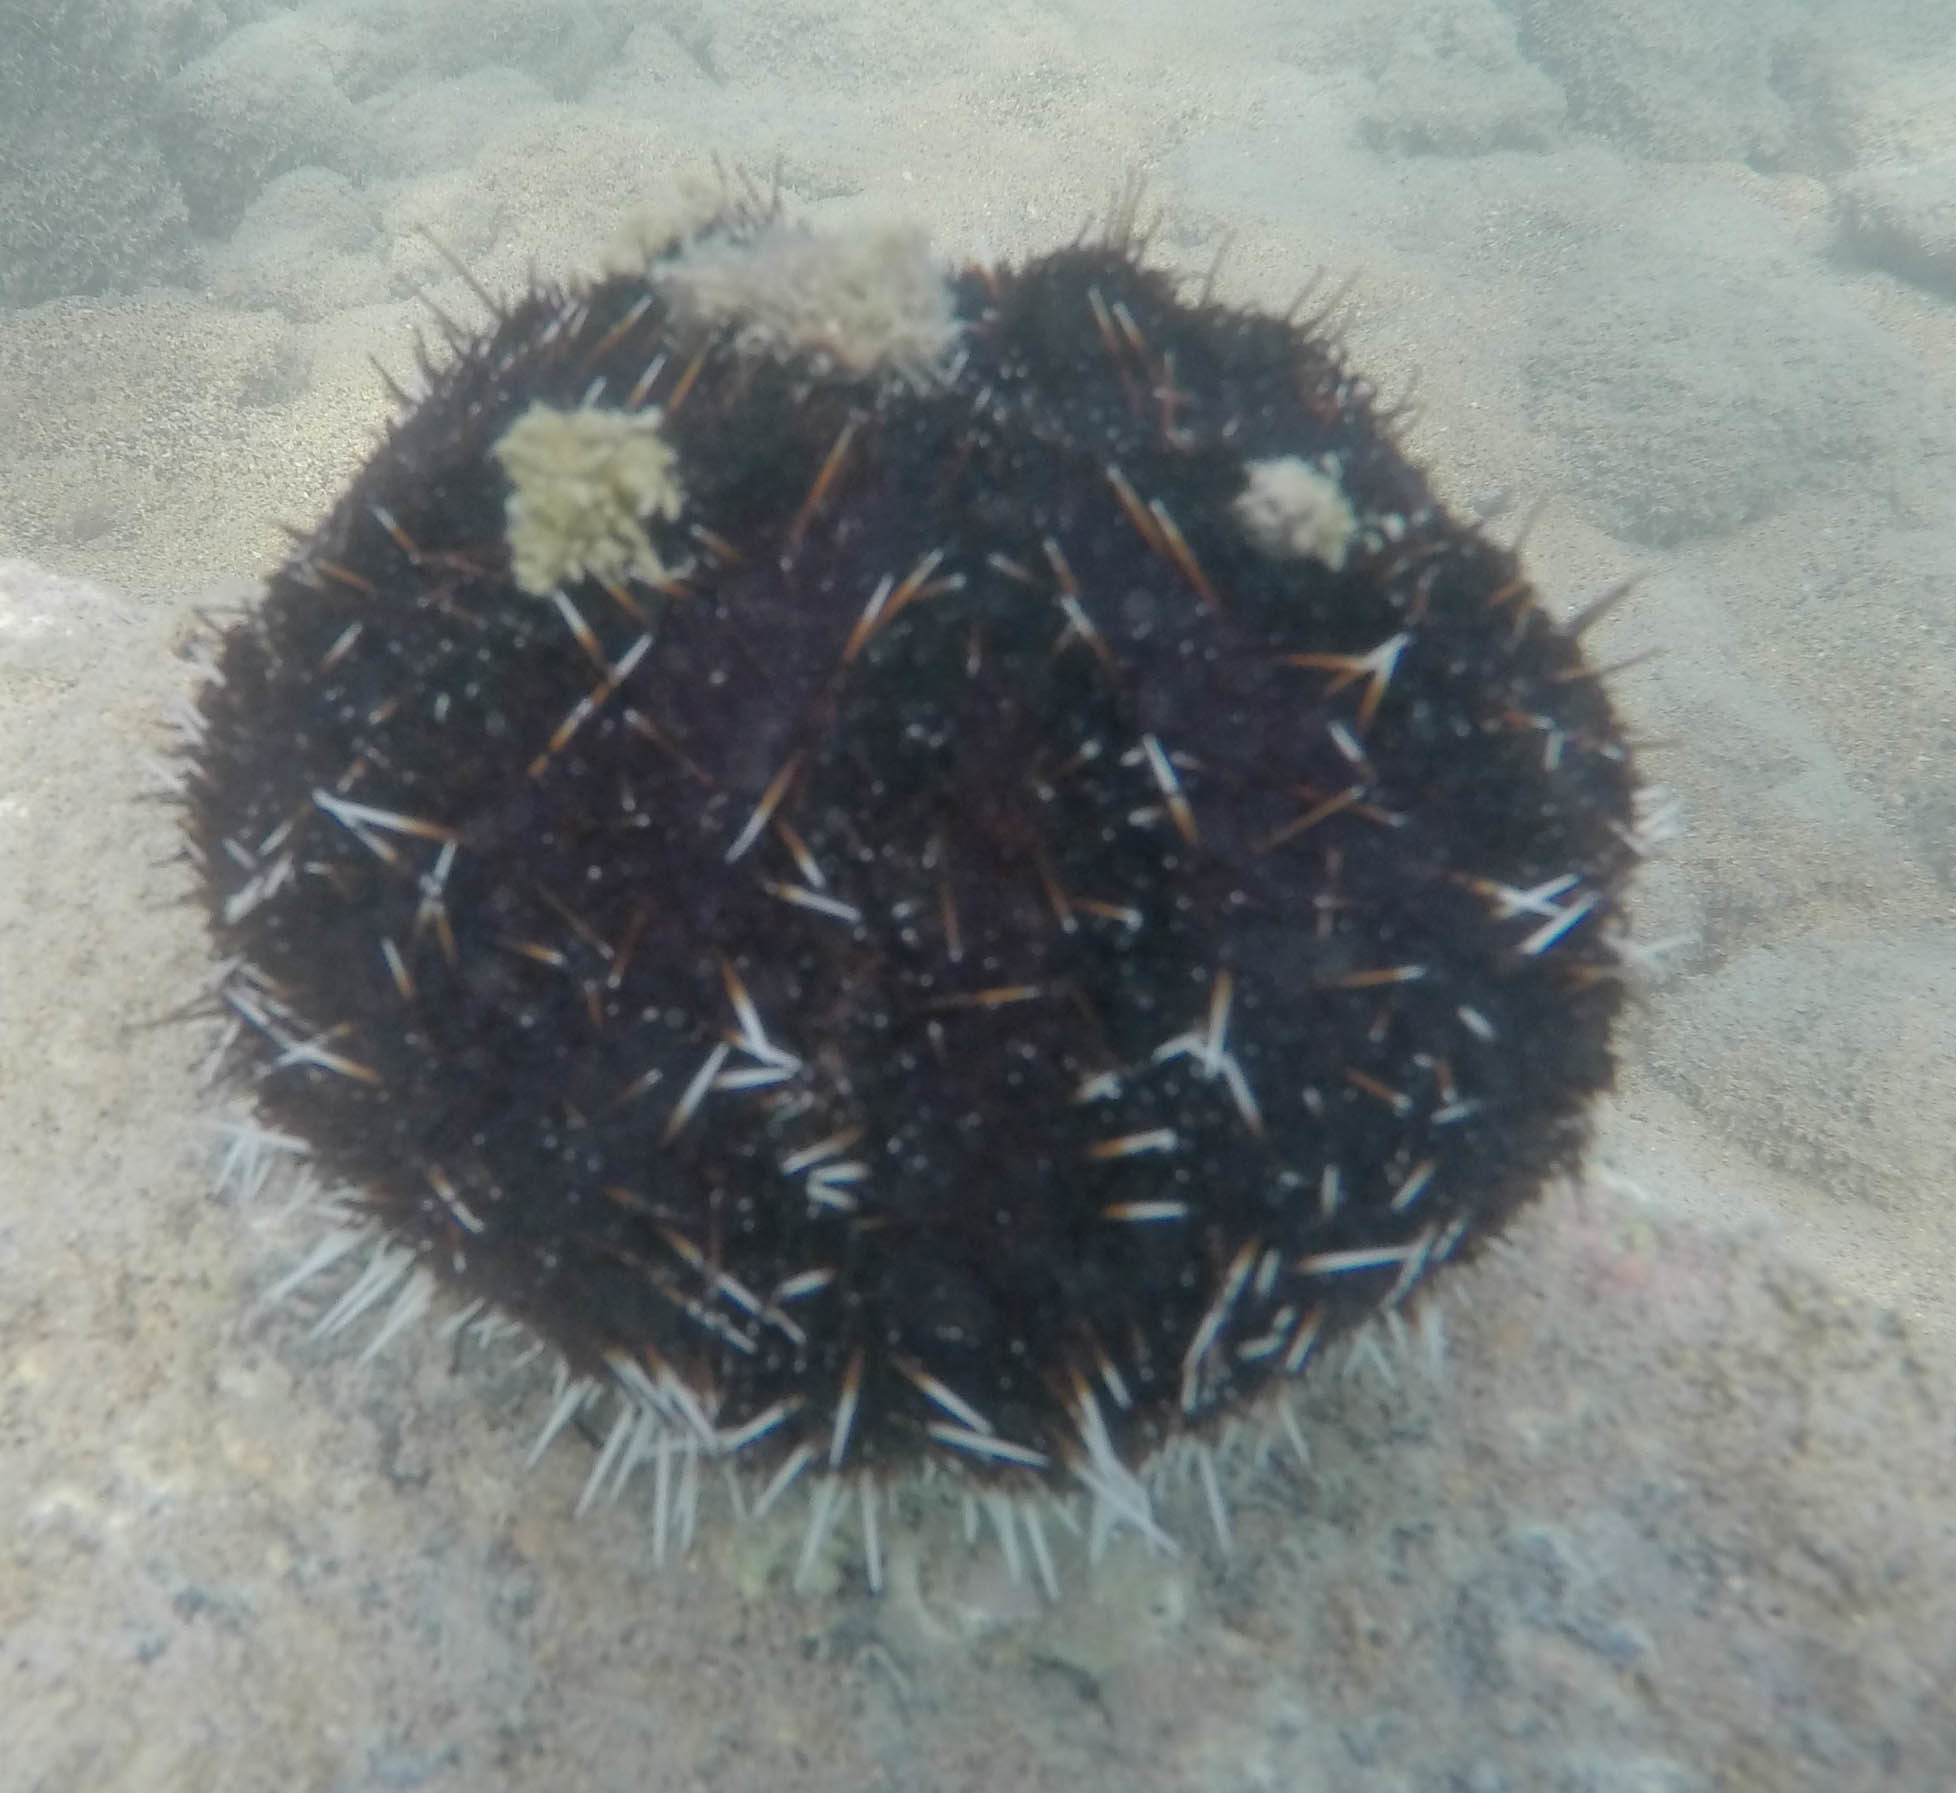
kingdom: Animalia
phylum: Echinodermata
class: Echinoidea
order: Camarodonta
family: Toxopneustidae
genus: Tripneustes
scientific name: Tripneustes gratilla
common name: Bischofsmützenseeigel
